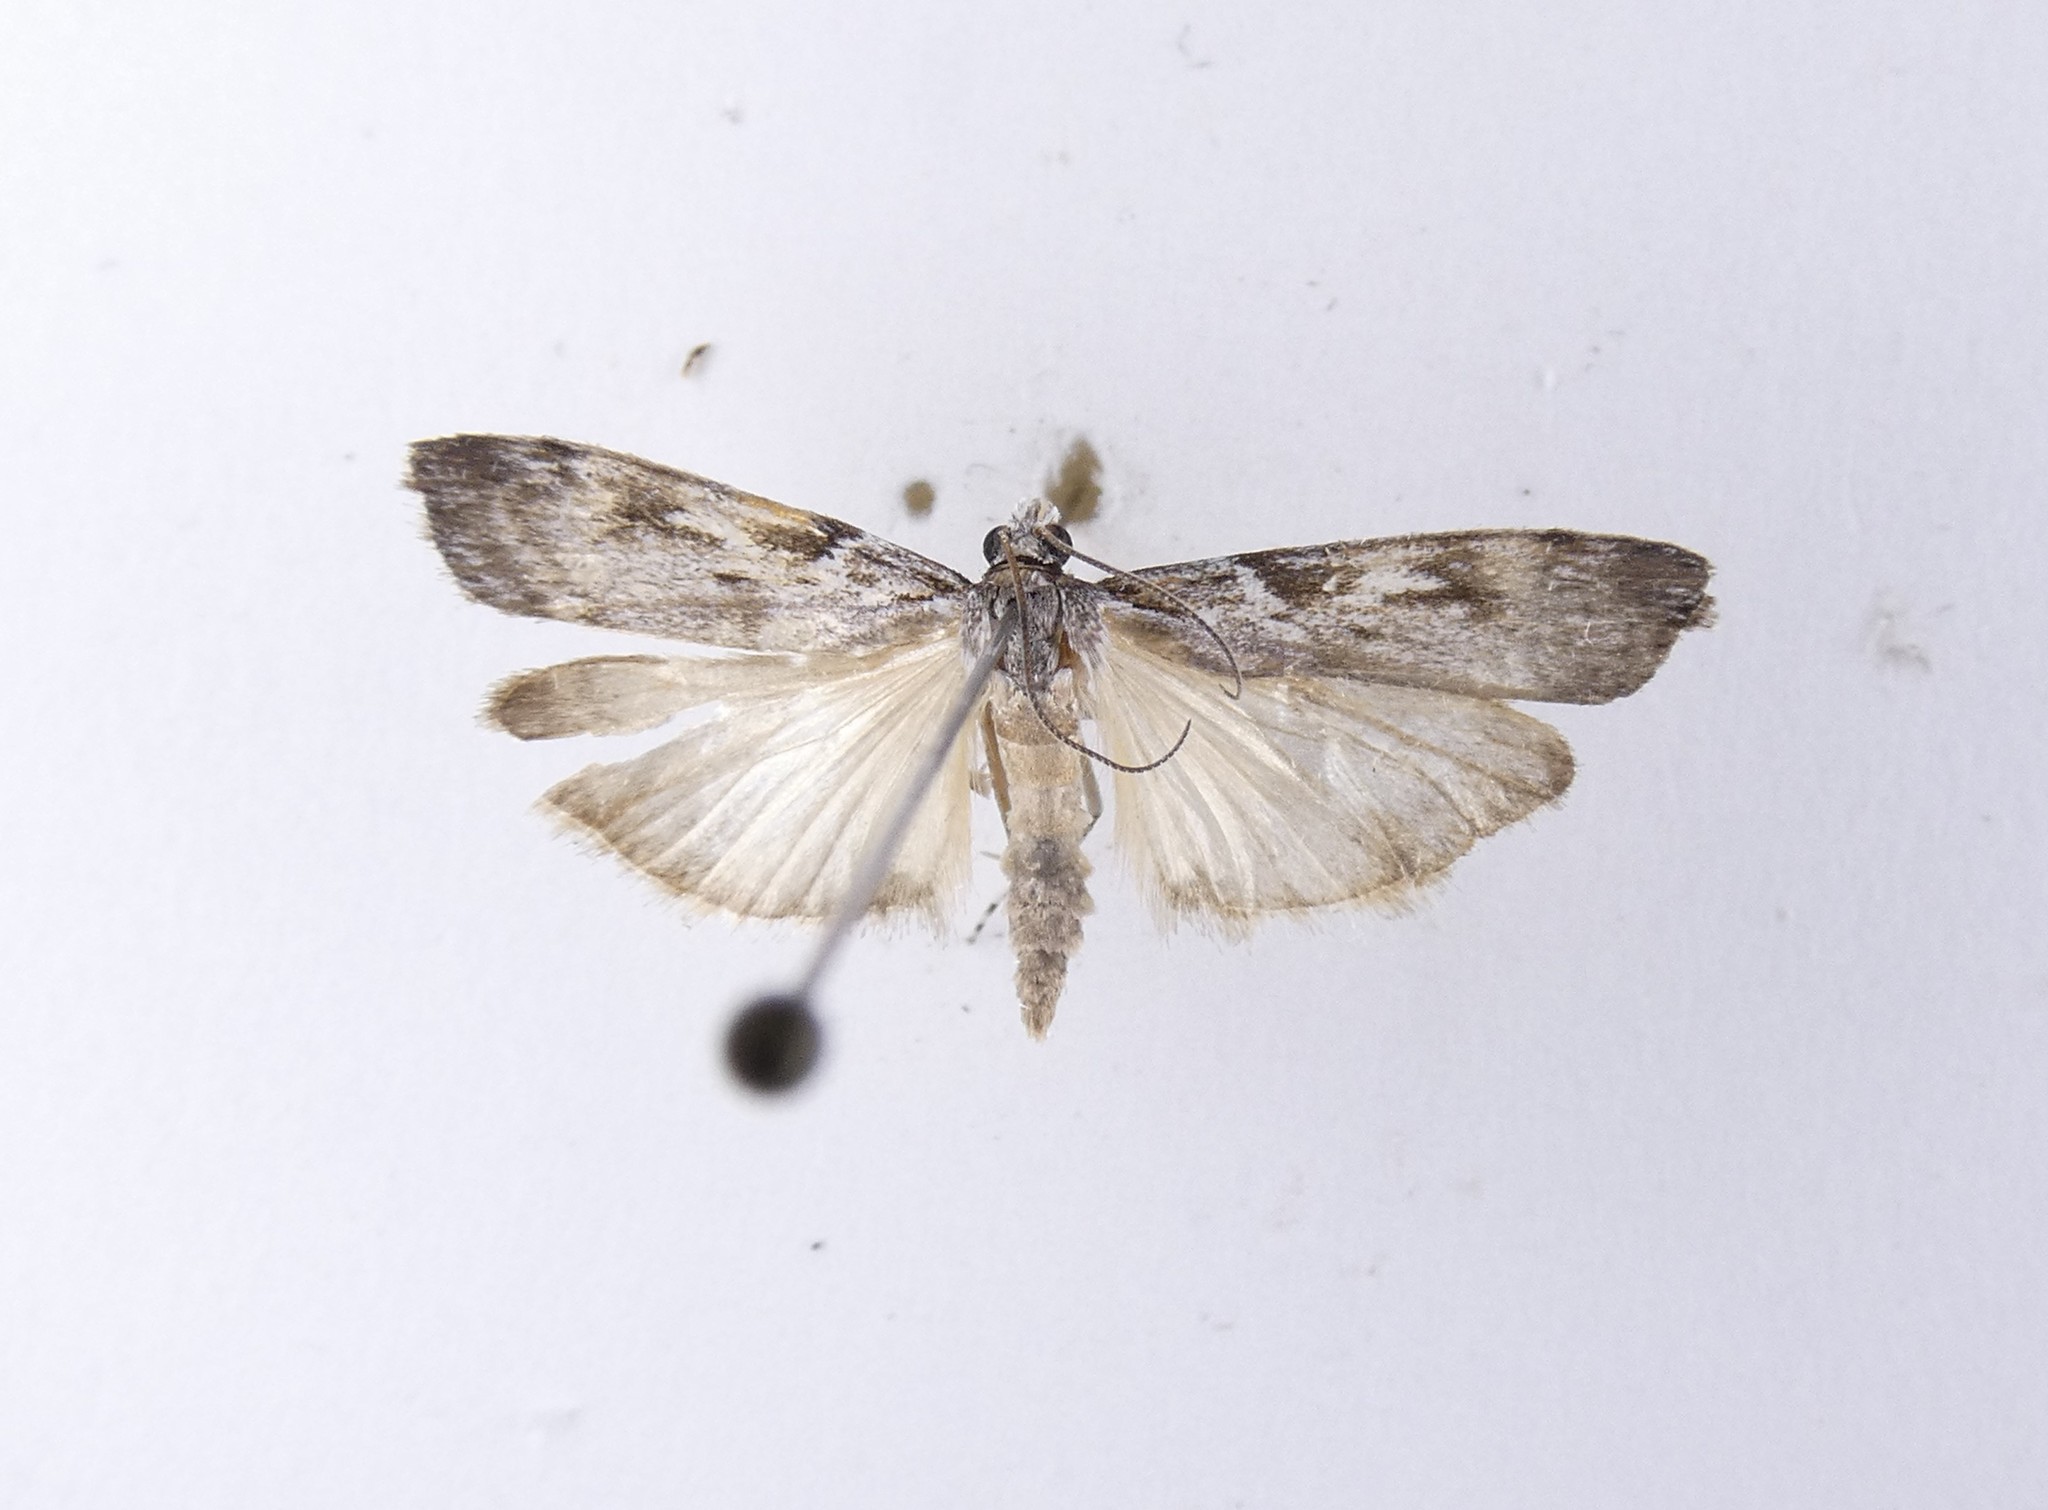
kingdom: Animalia
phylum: Arthropoda
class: Insecta
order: Lepidoptera
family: Crambidae
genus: Scoparia
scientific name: Scoparia halopis
